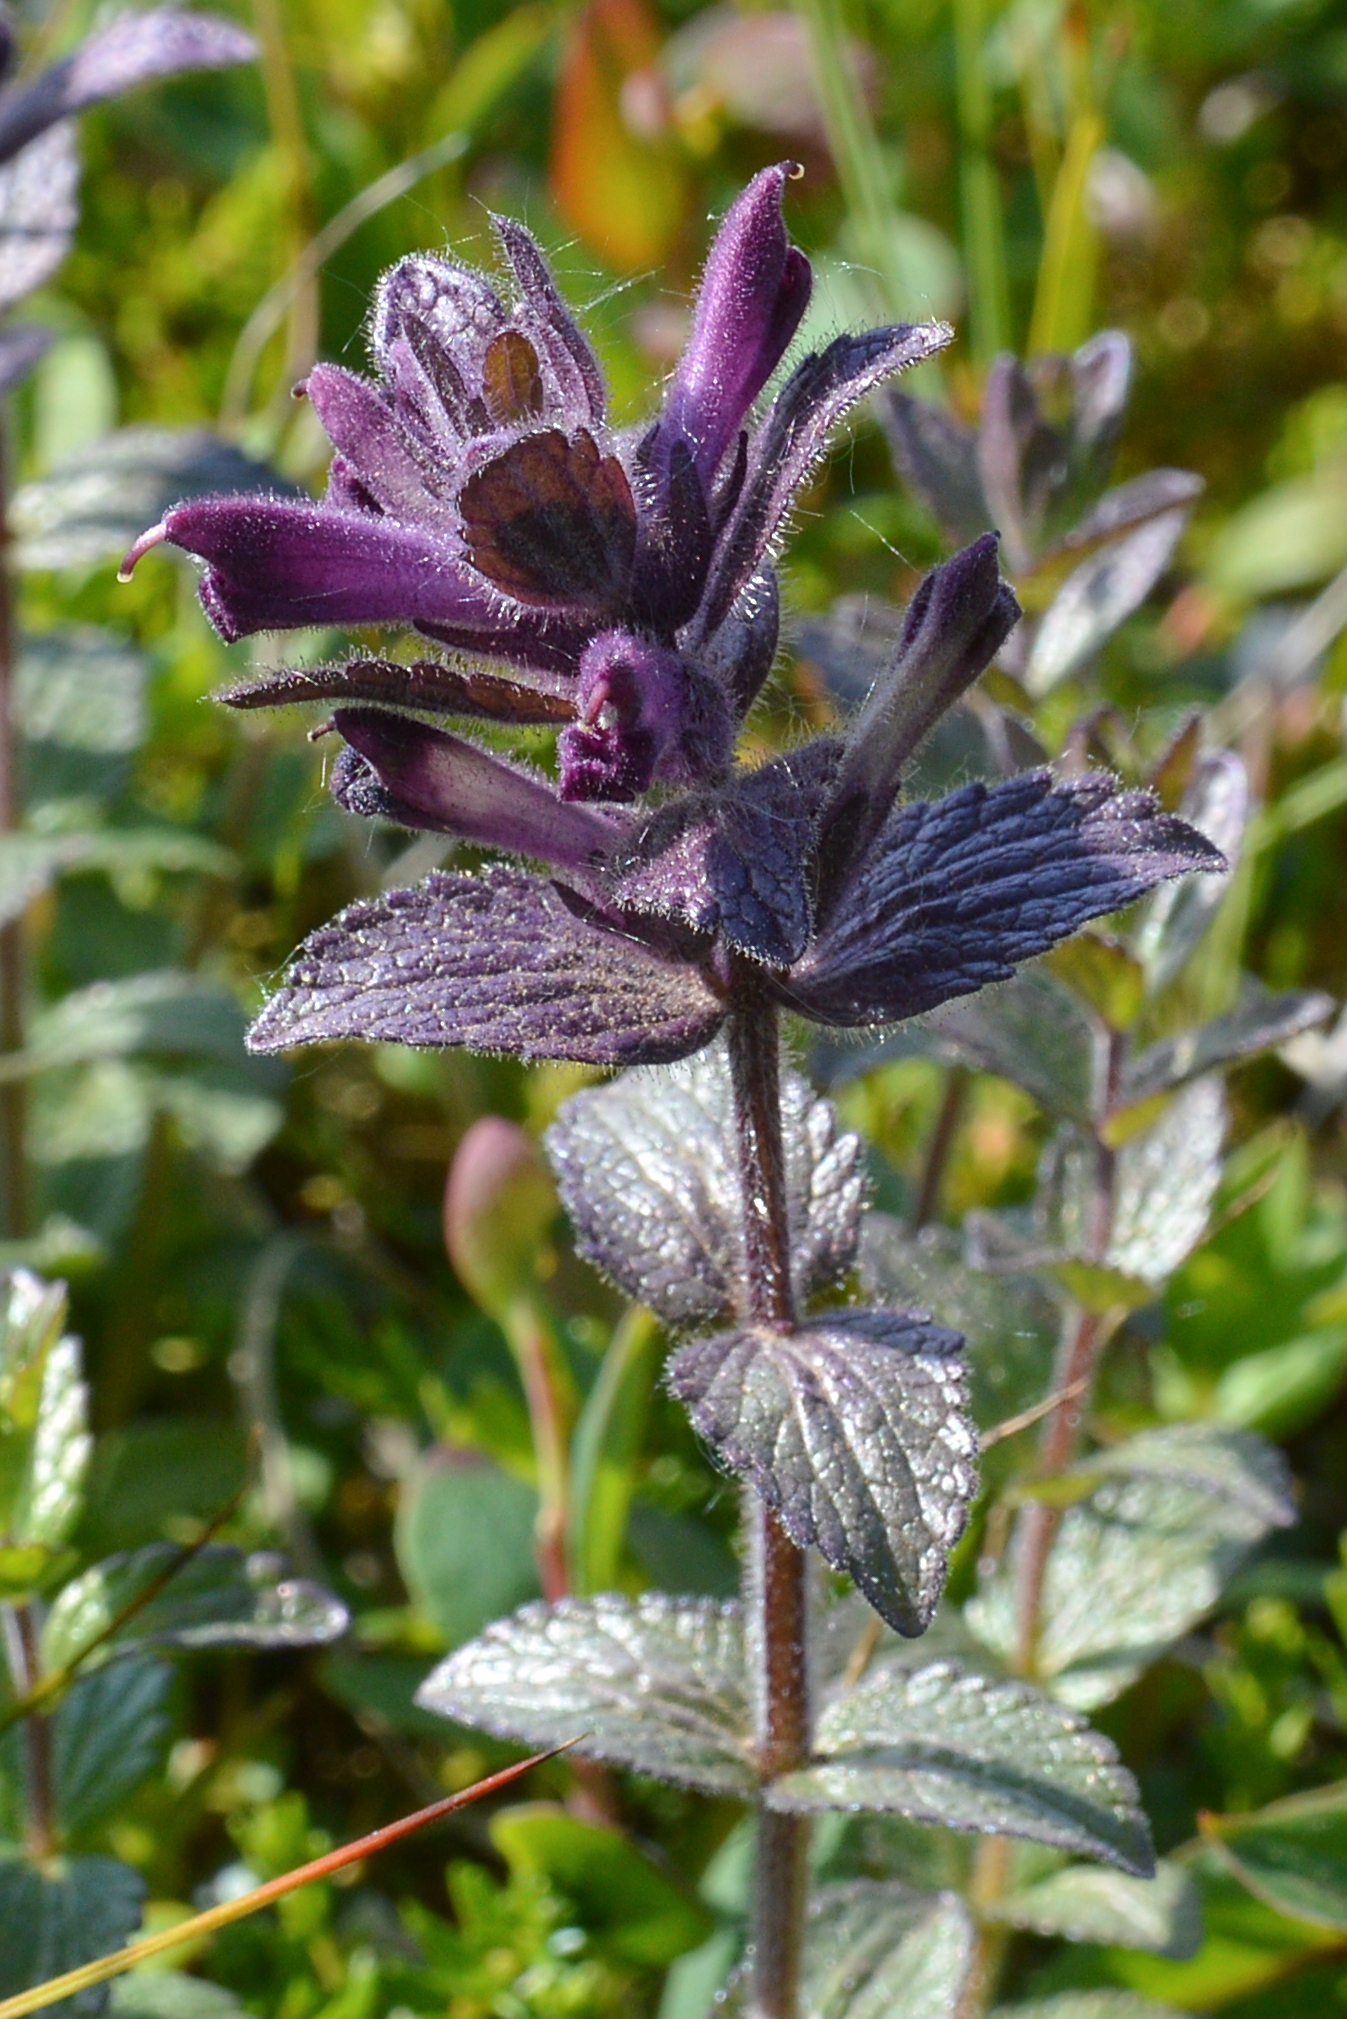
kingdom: Plantae
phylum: Tracheophyta
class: Magnoliopsida
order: Lamiales
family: Orobanchaceae
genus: Bartsia
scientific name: Bartsia alpina
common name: Alpine bartsia
